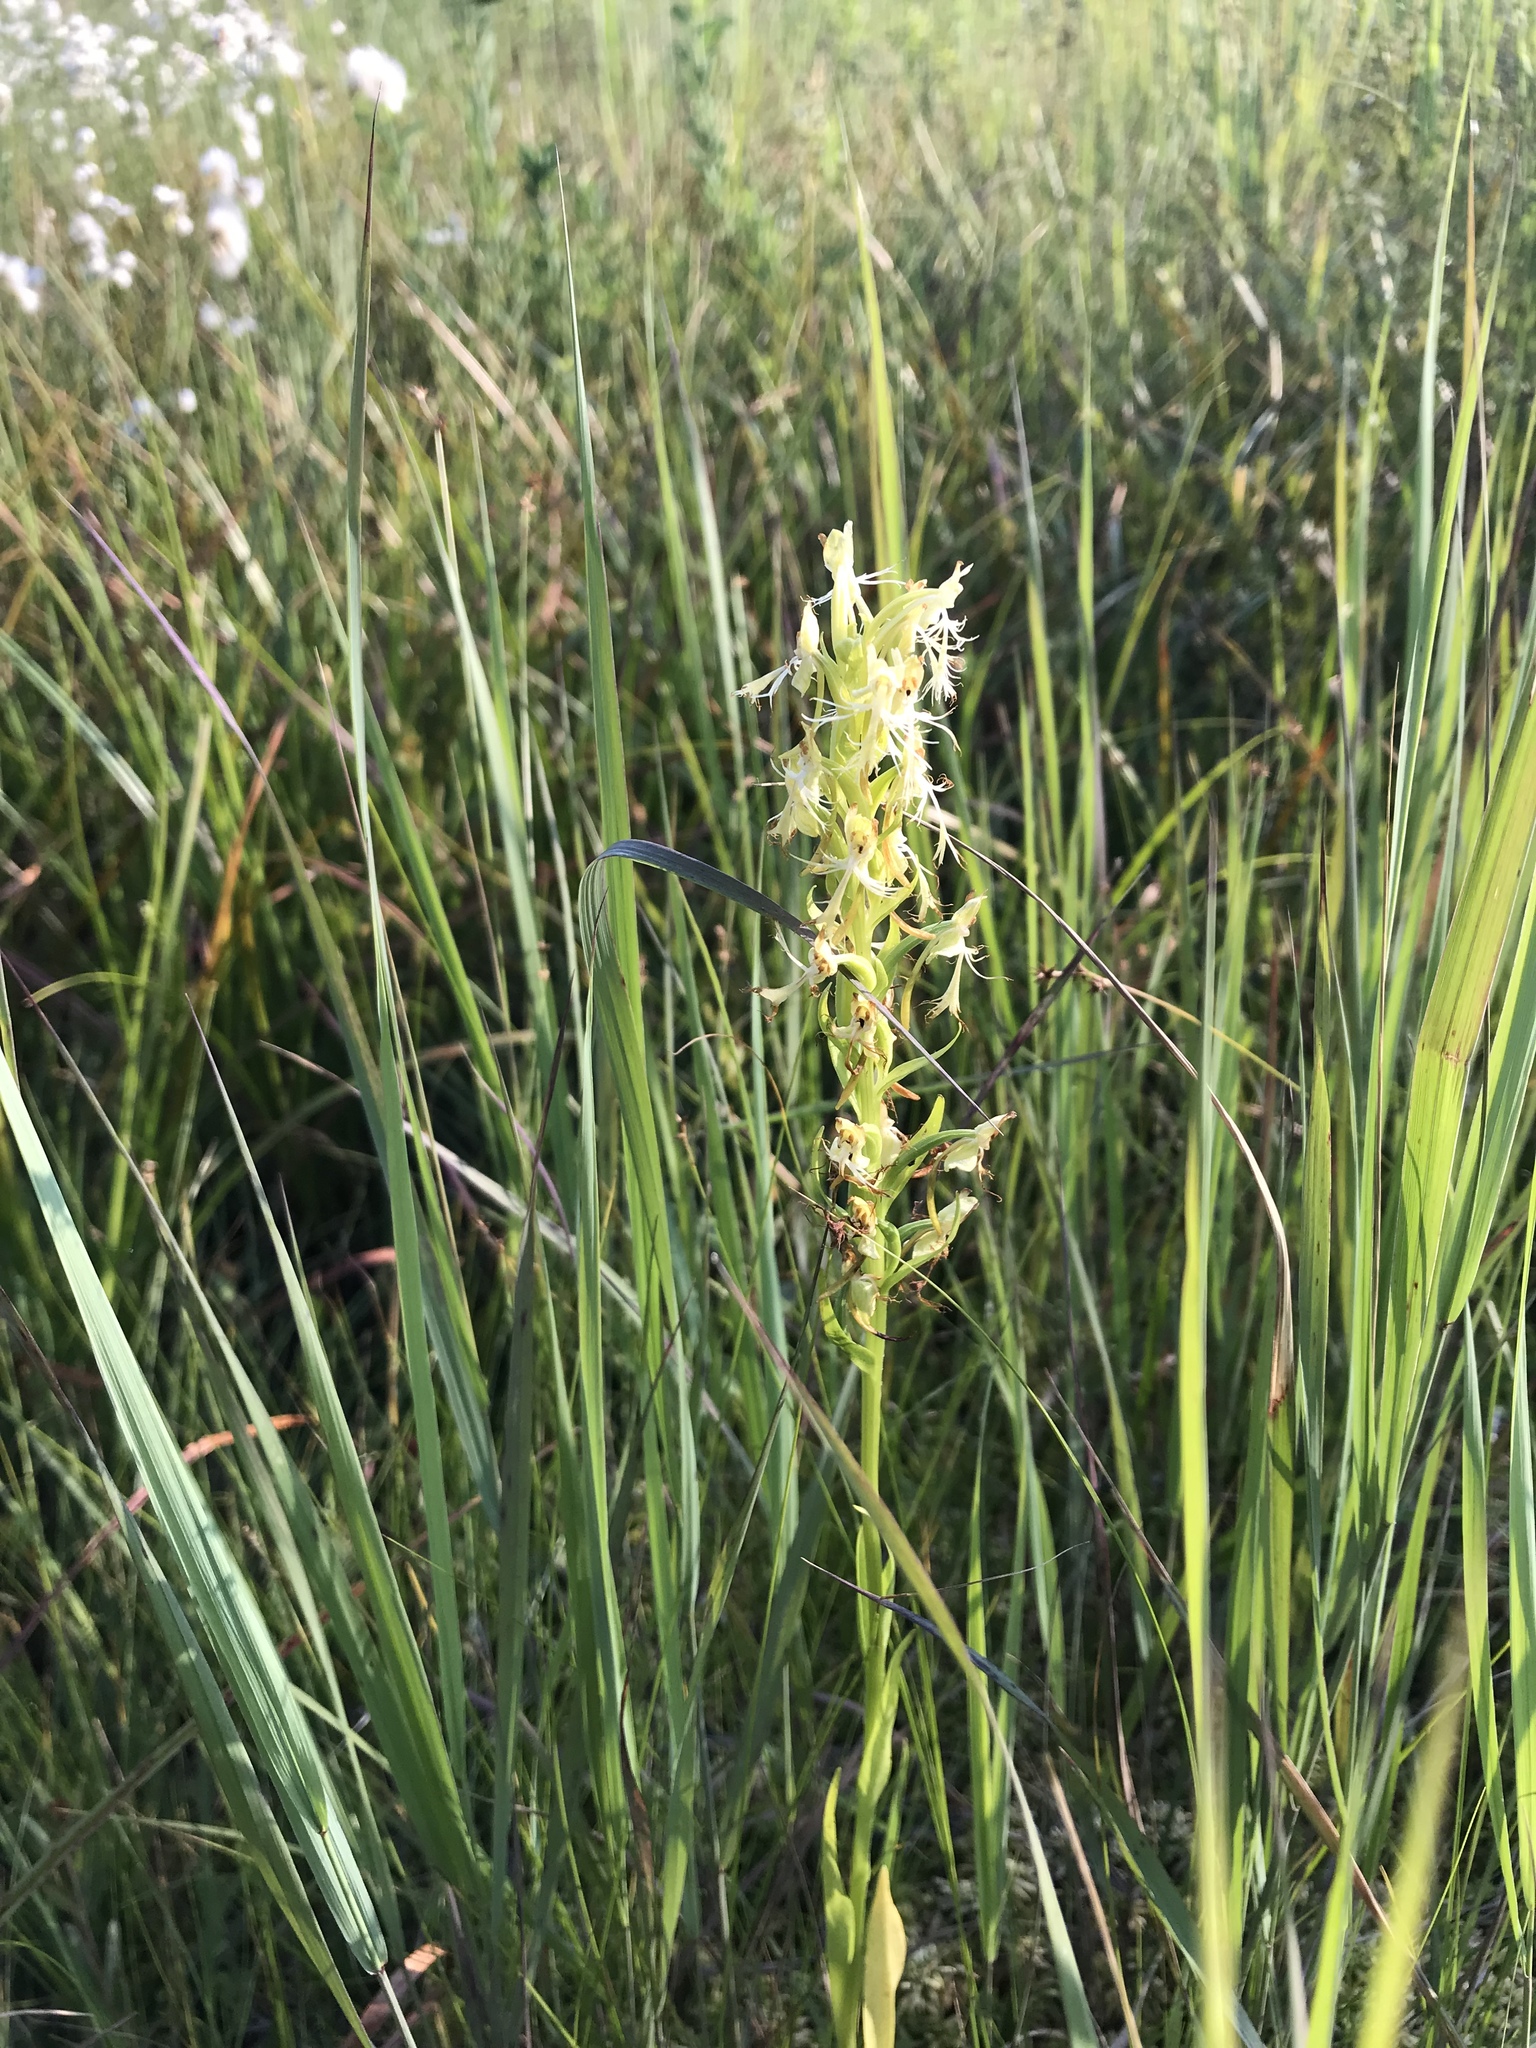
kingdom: Plantae
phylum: Tracheophyta
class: Liliopsida
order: Asparagales
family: Orchidaceae
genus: Platanthera
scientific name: Platanthera lacera
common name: Green fringed orchid
